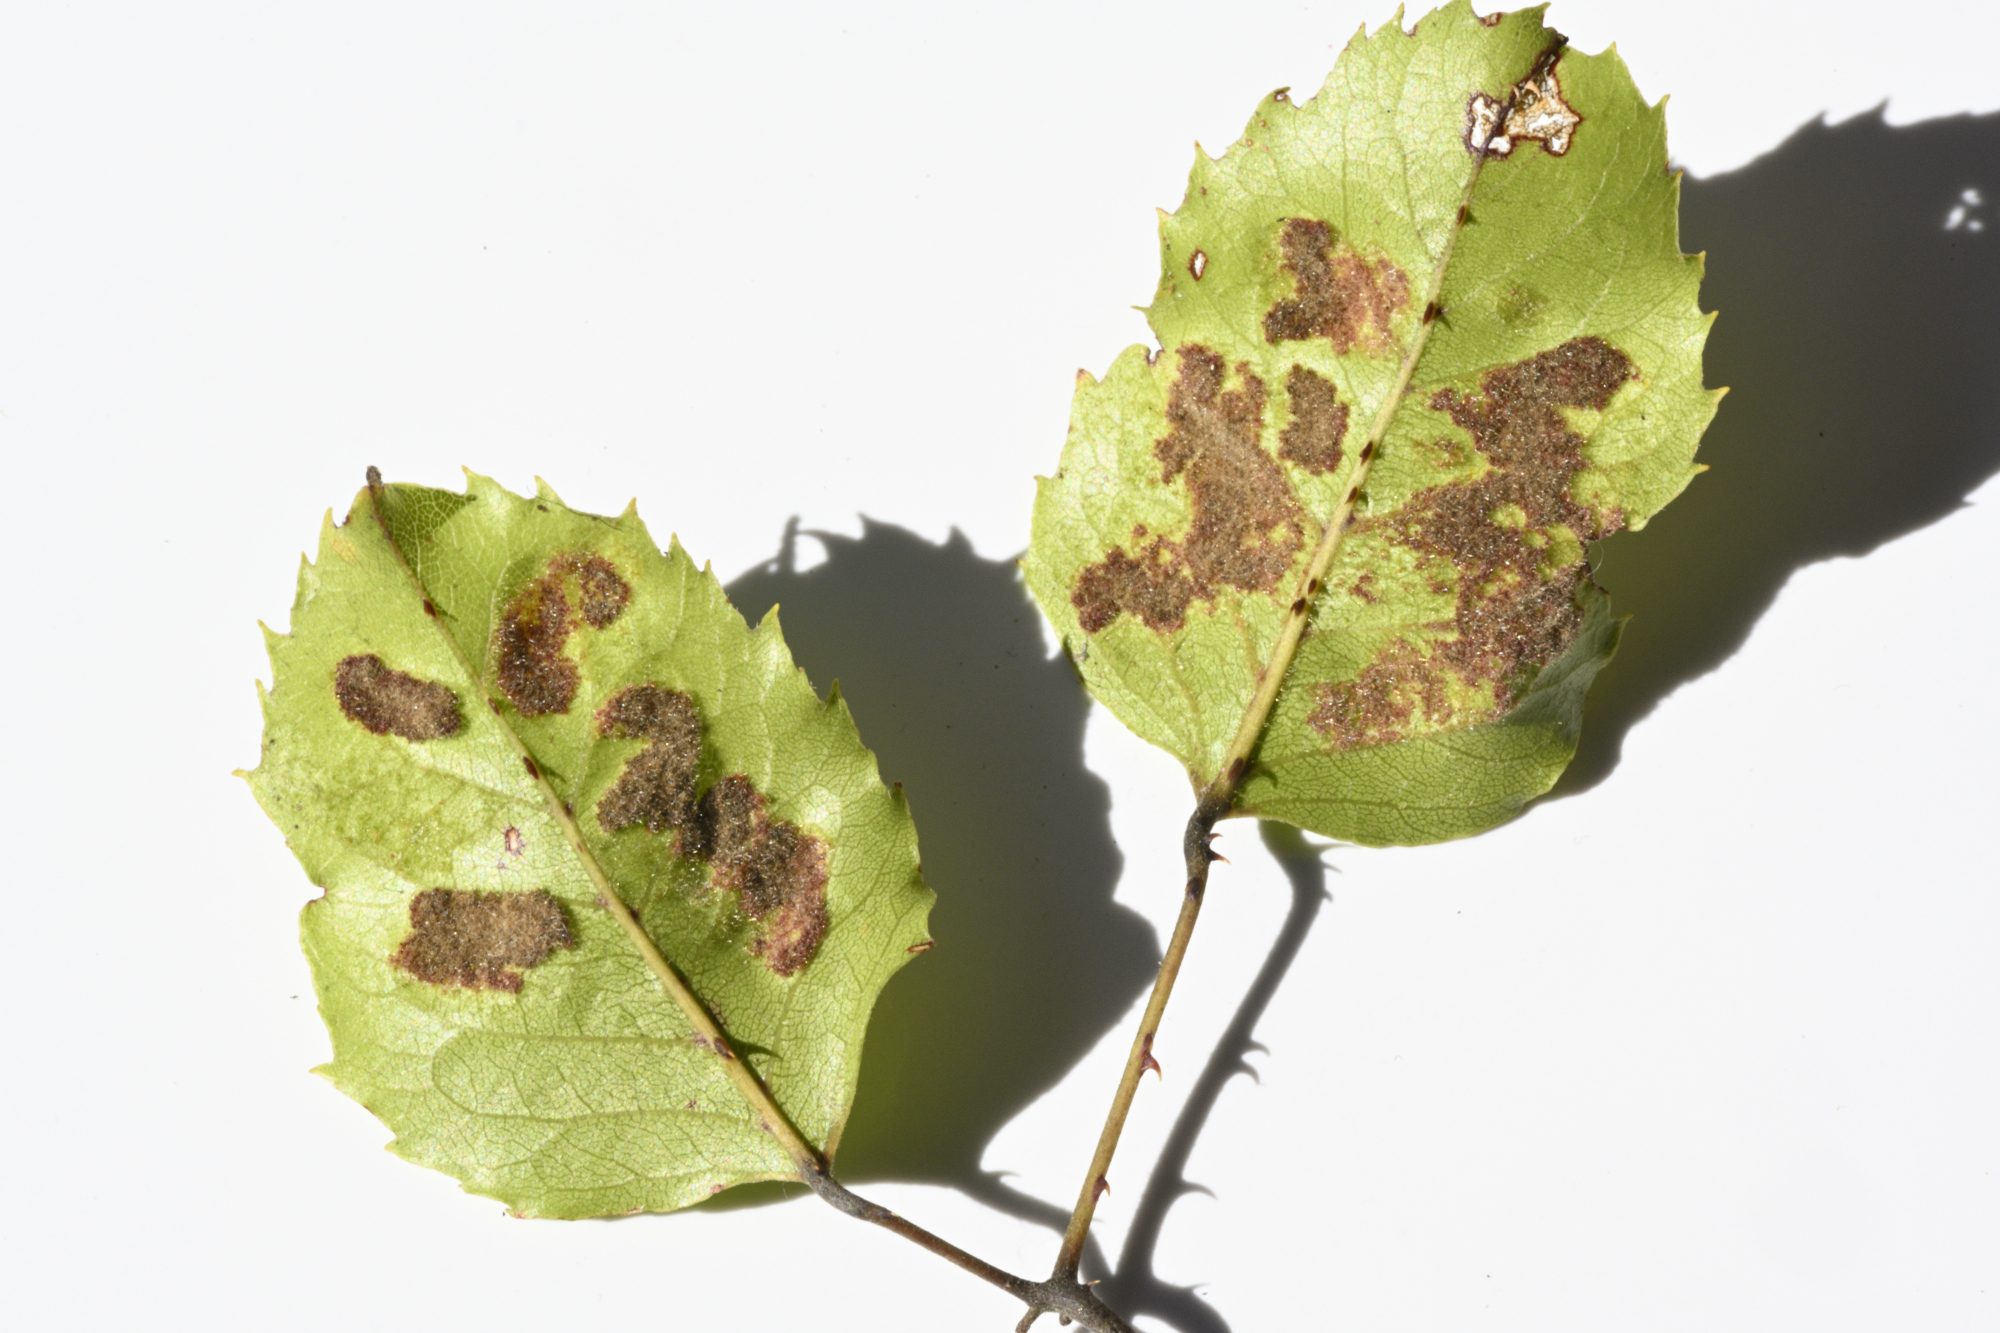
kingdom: Animalia
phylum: Arthropoda
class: Arachnida
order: Trombidiformes
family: Eriophyidae
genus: Acalitus
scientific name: Acalitus
